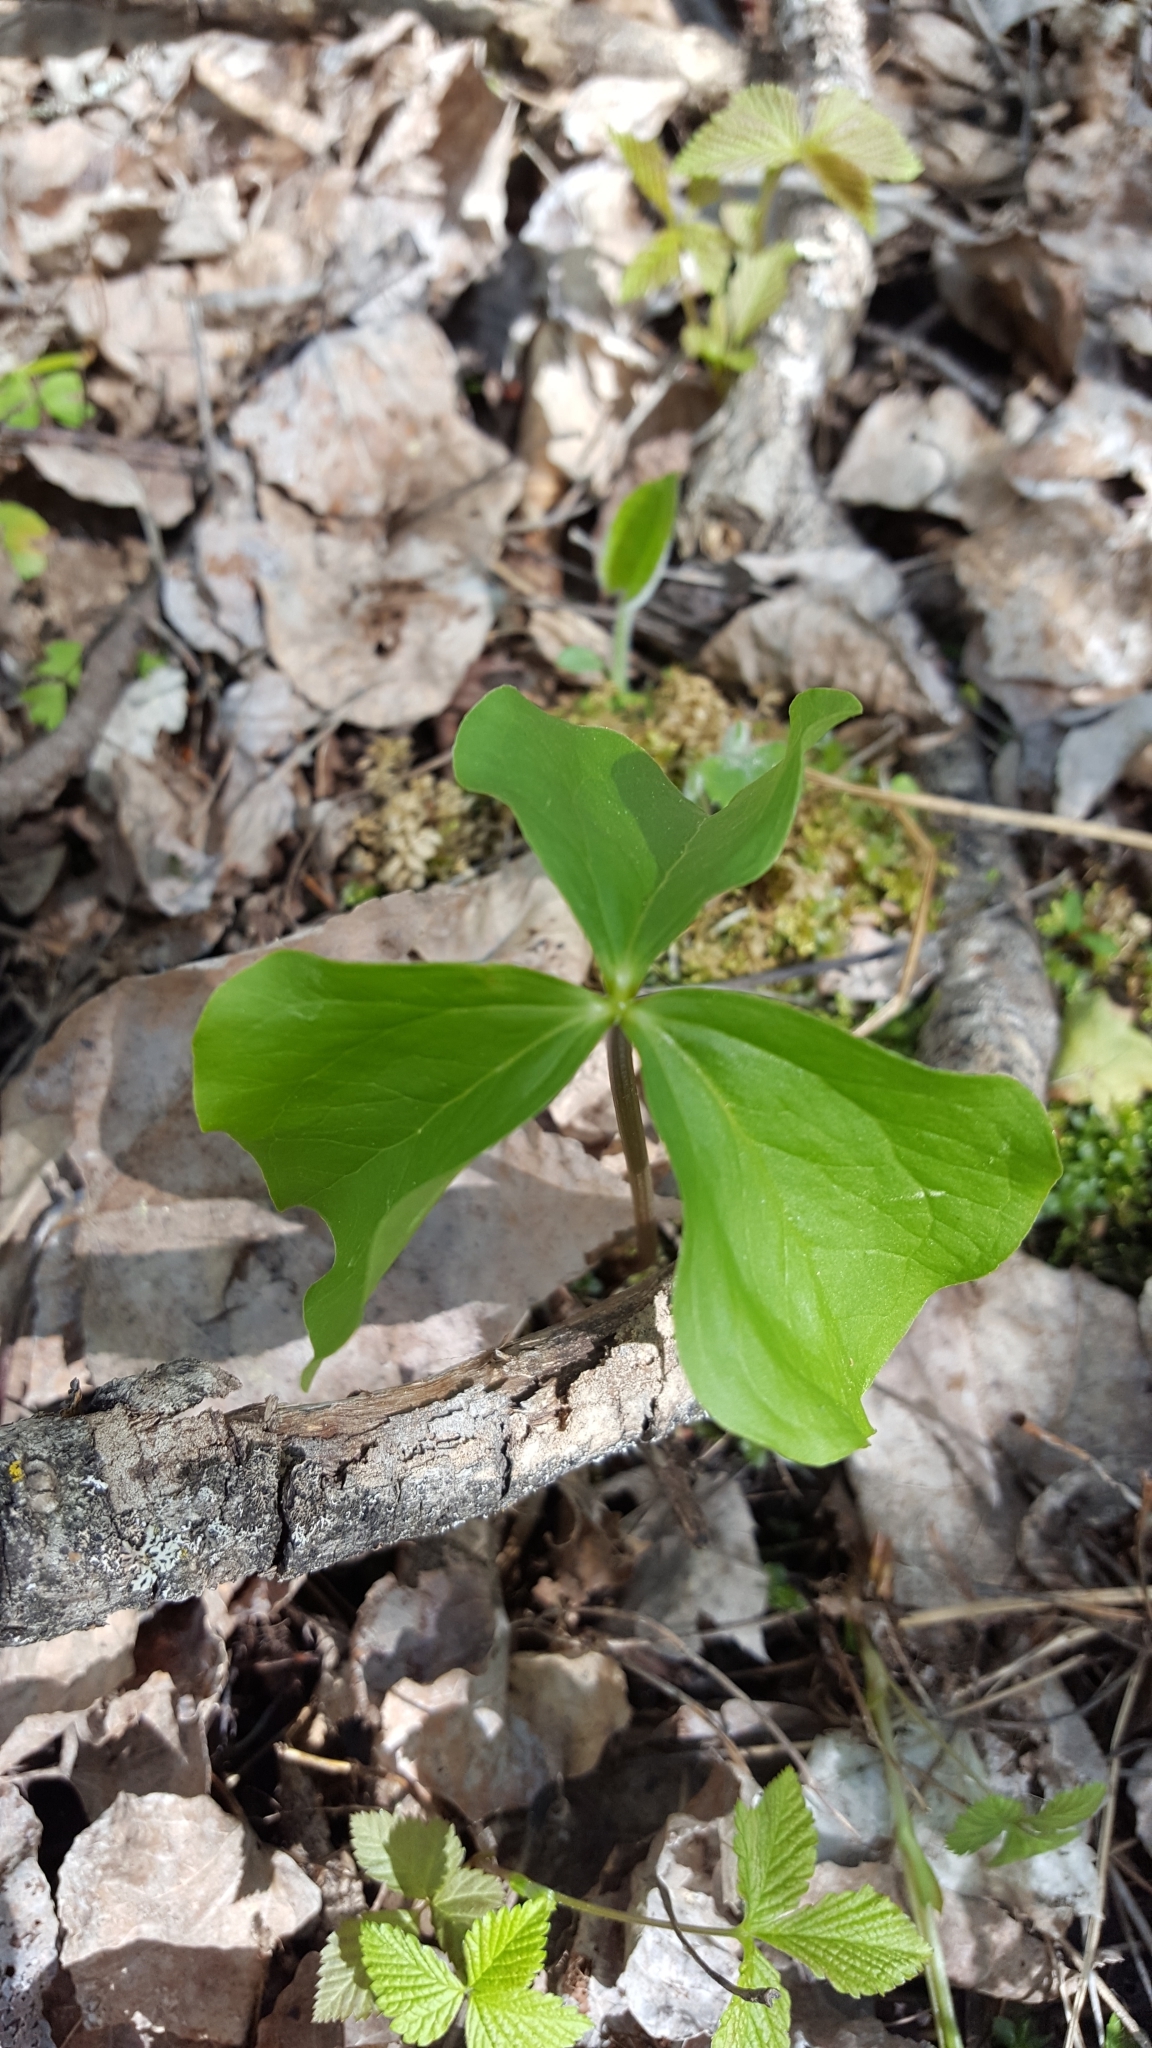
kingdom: Plantae
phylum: Tracheophyta
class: Liliopsida
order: Liliales
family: Melanthiaceae
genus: Trillium
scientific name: Trillium cernuum
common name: Nodding trillium
